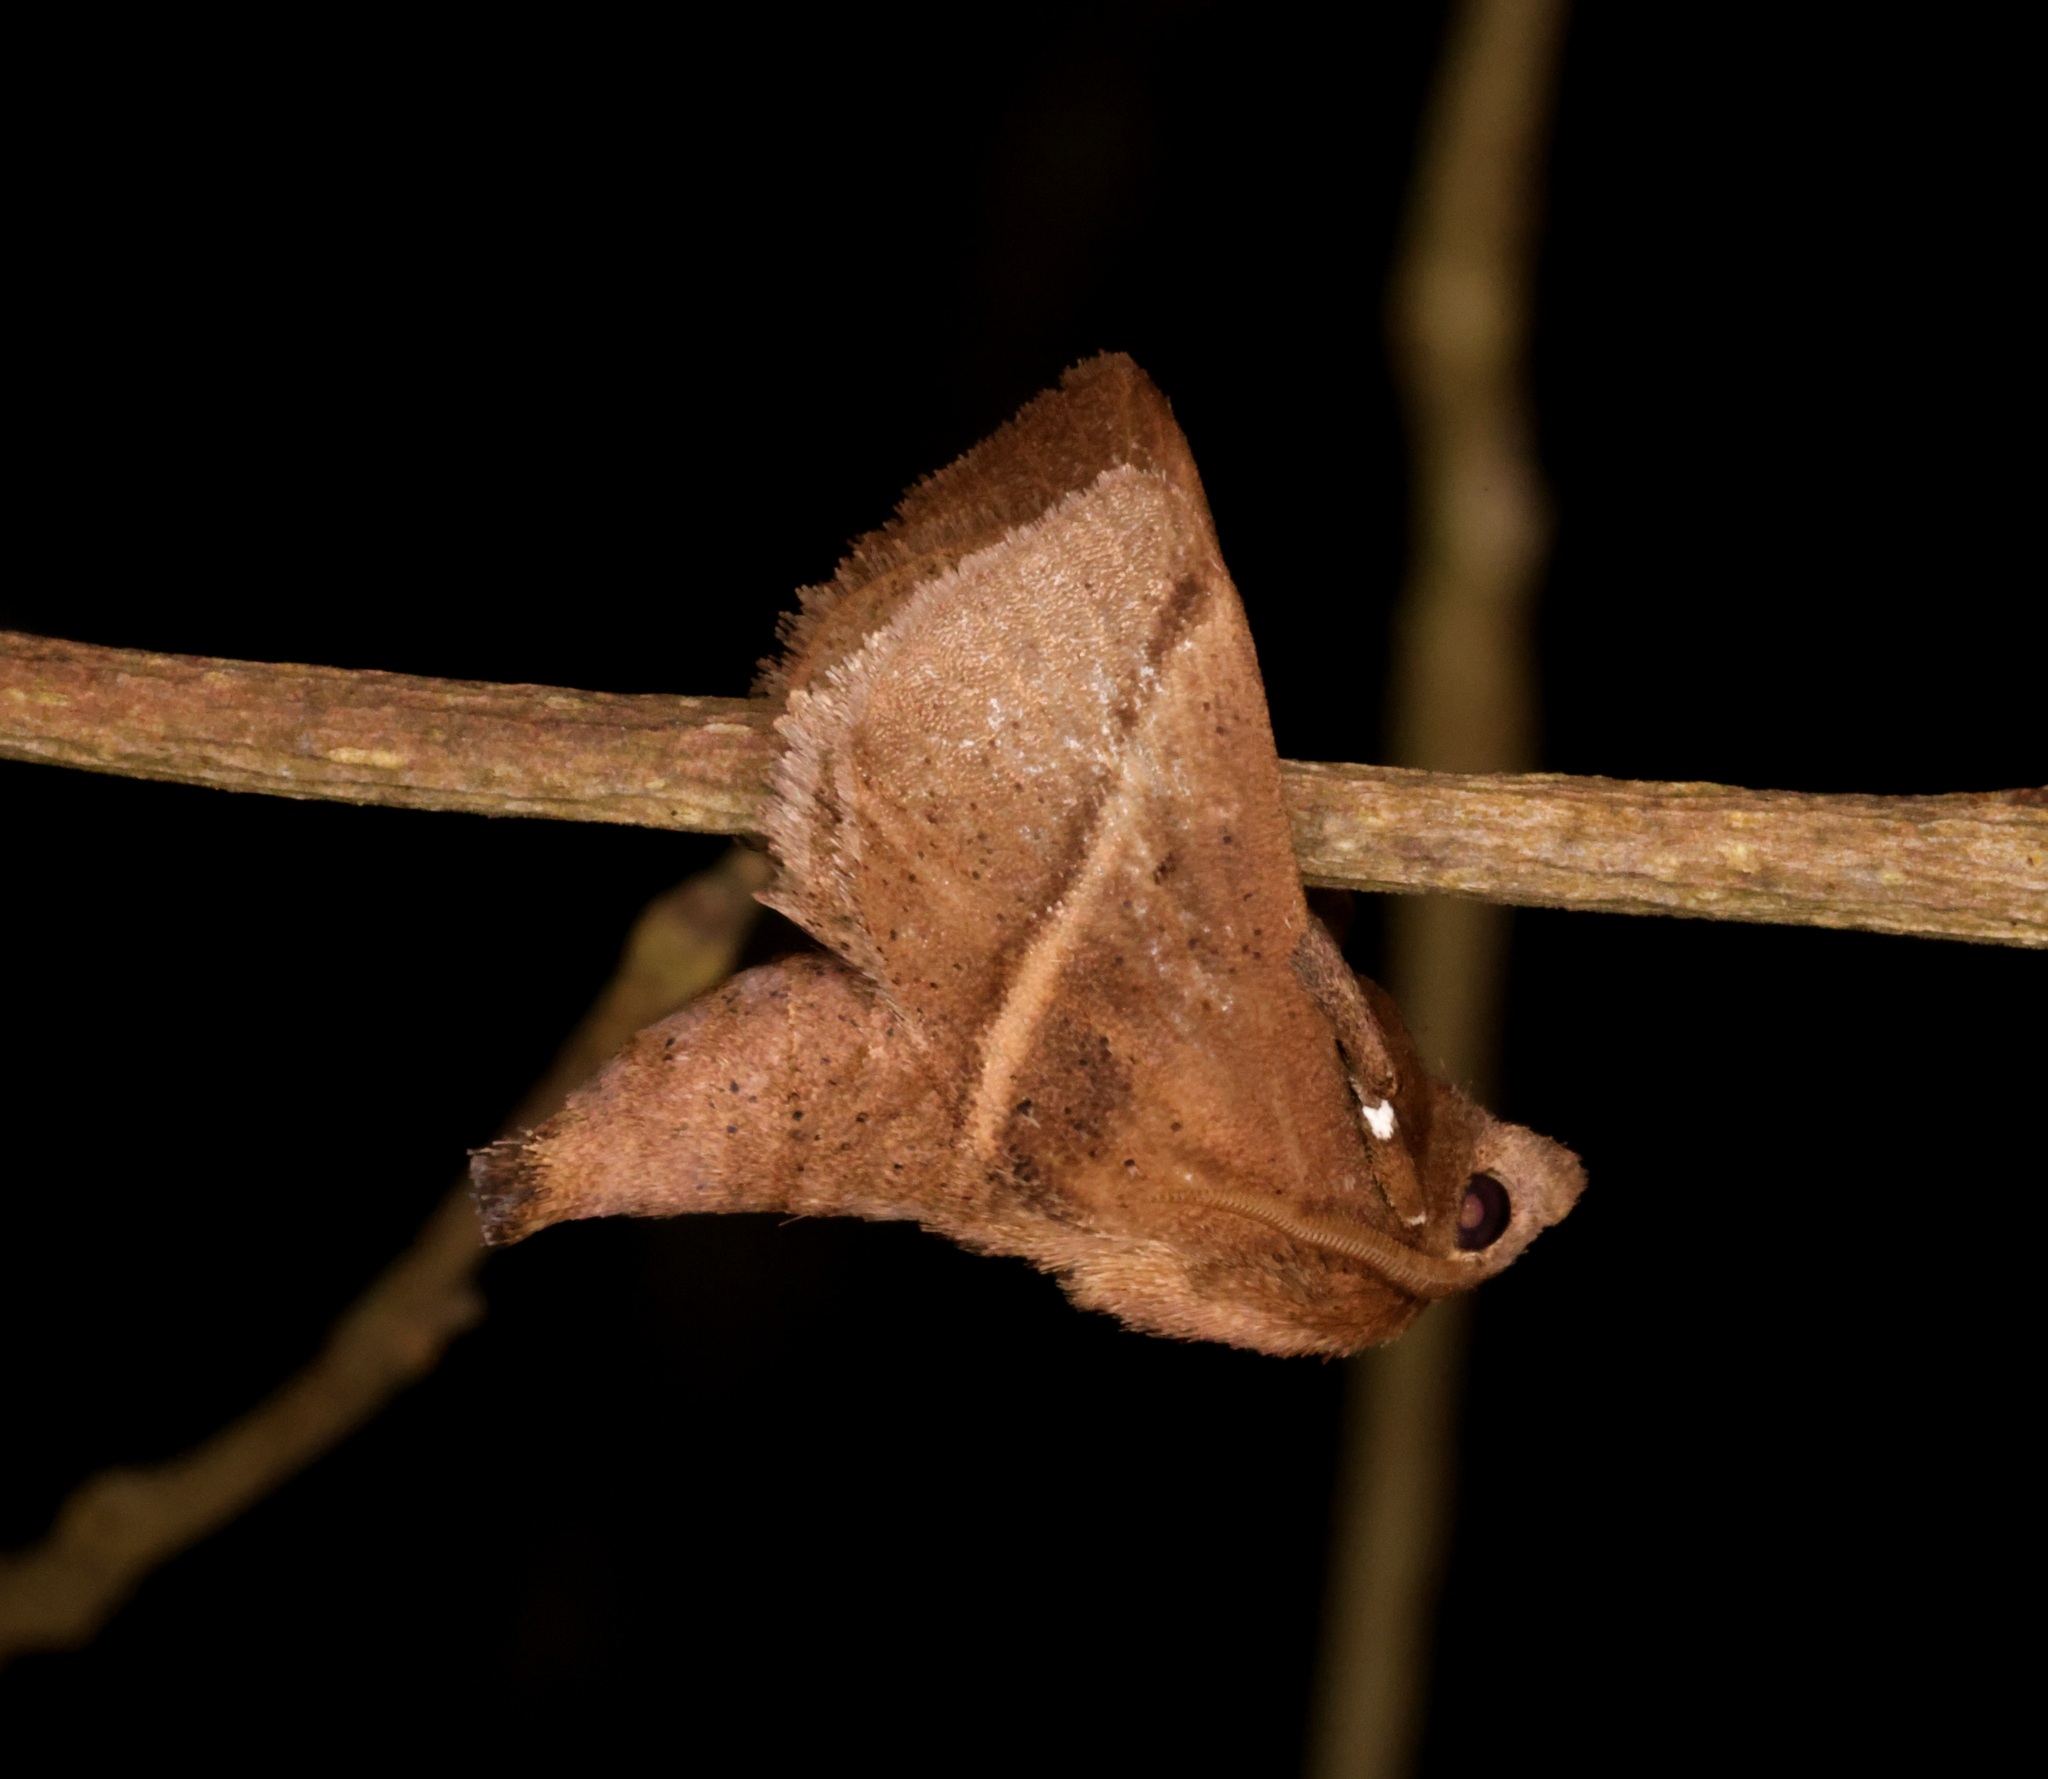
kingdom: Animalia
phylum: Arthropoda
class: Insecta
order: Lepidoptera
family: Limacodidae
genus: Quasithosea
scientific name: Quasithosea obliquistriga
